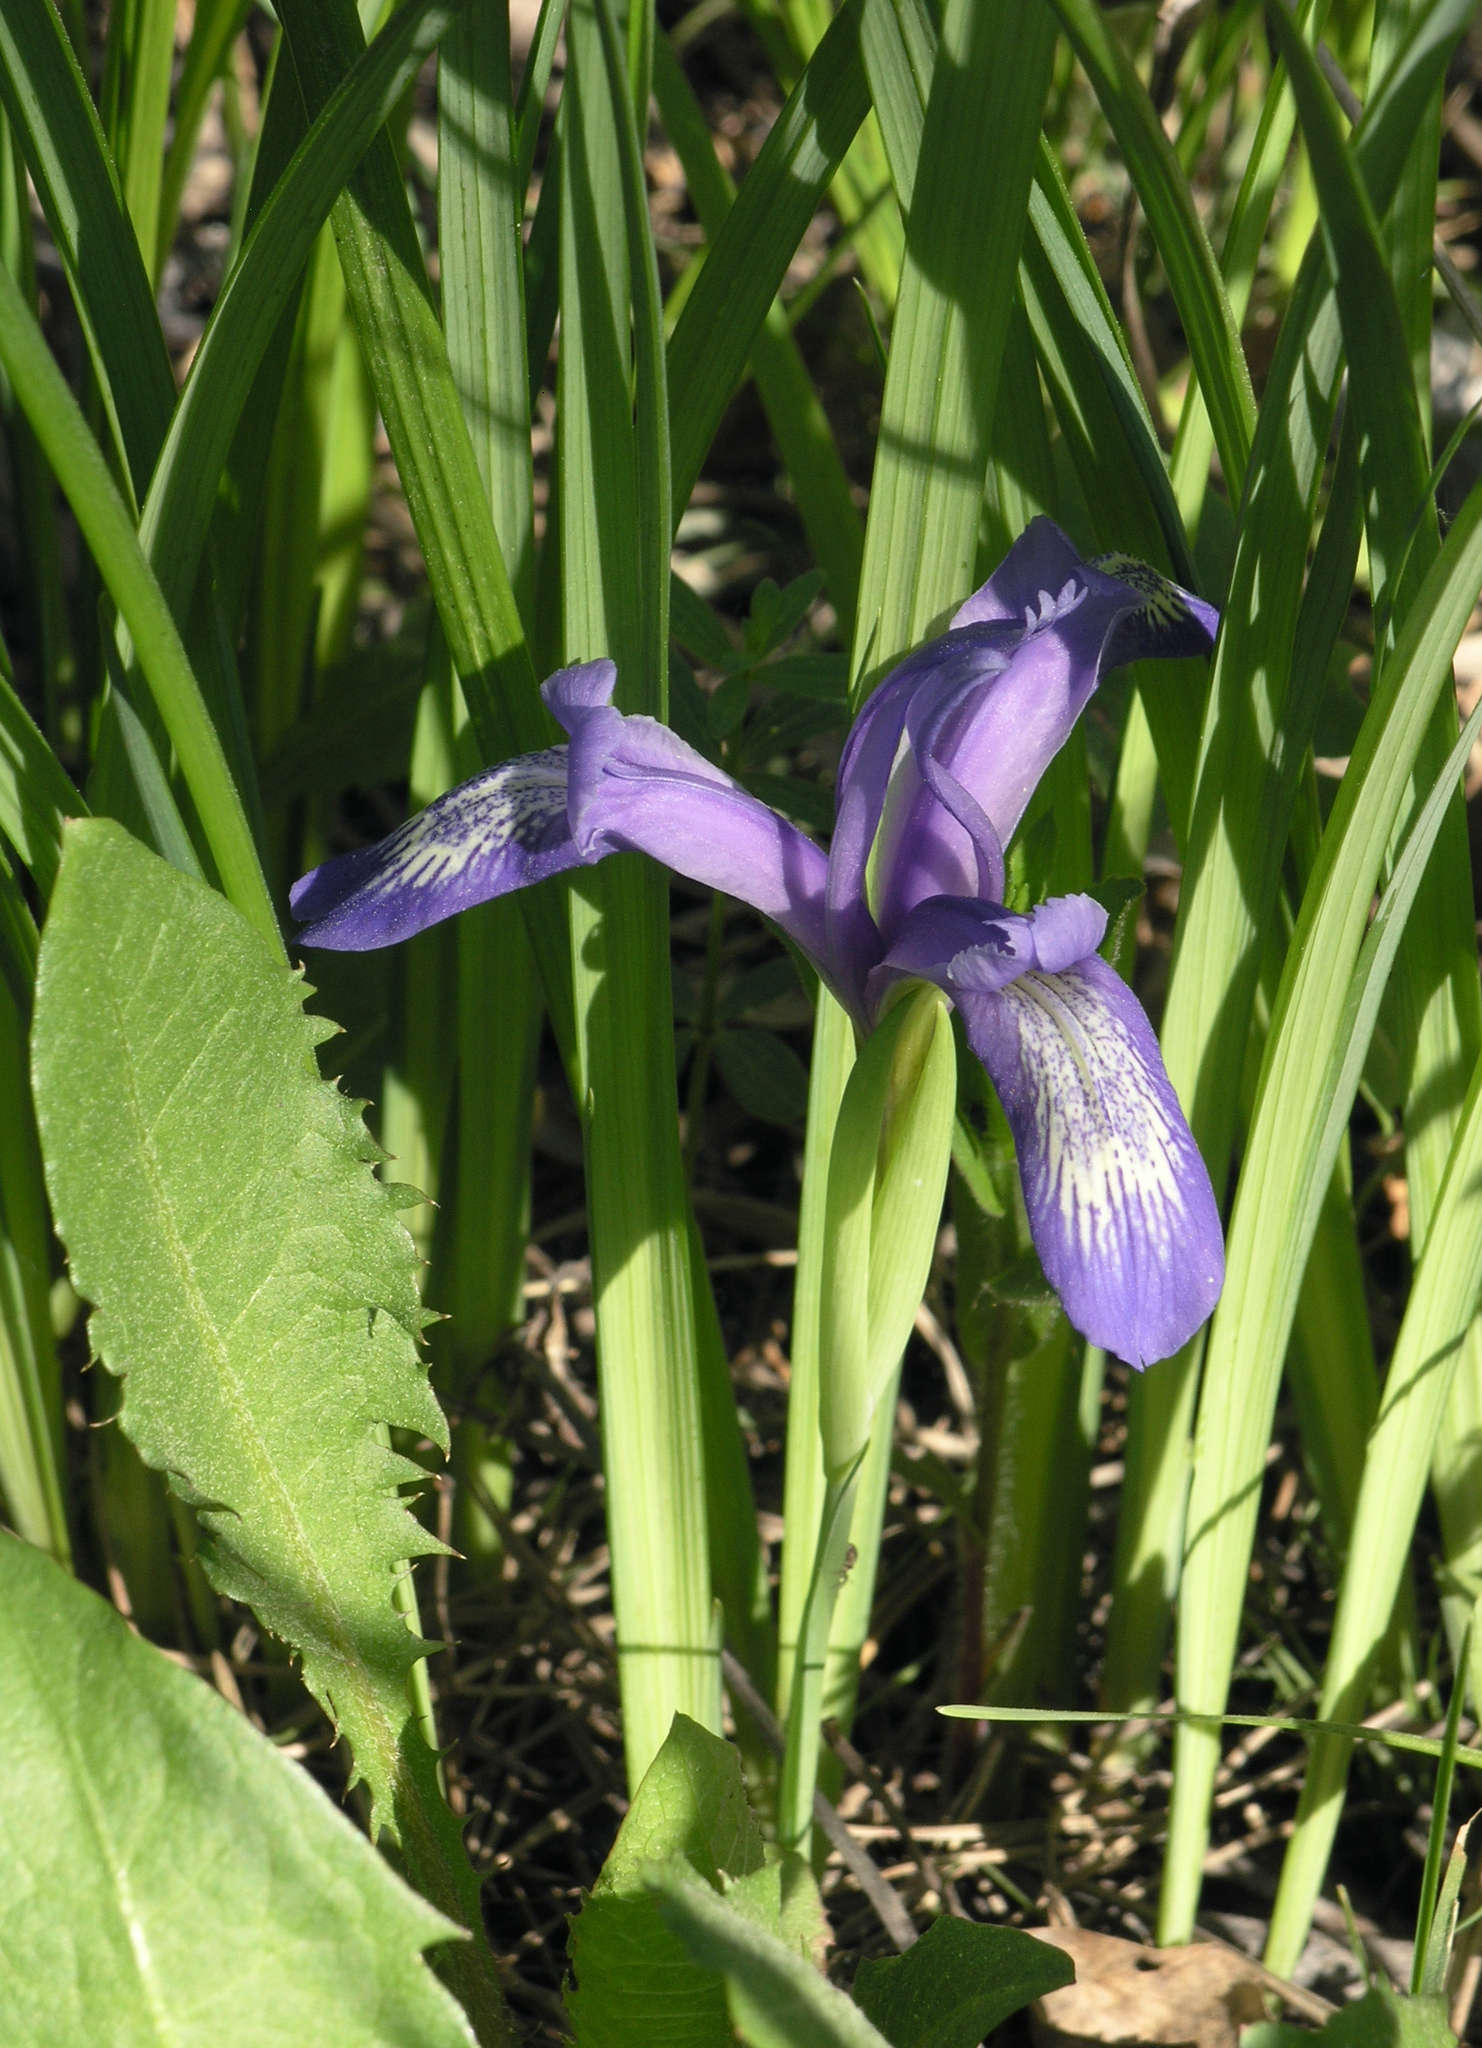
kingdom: Plantae
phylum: Tracheophyta
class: Liliopsida
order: Asparagales
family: Iridaceae
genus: Iris
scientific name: Iris ruthenica
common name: Purple-bract iris
